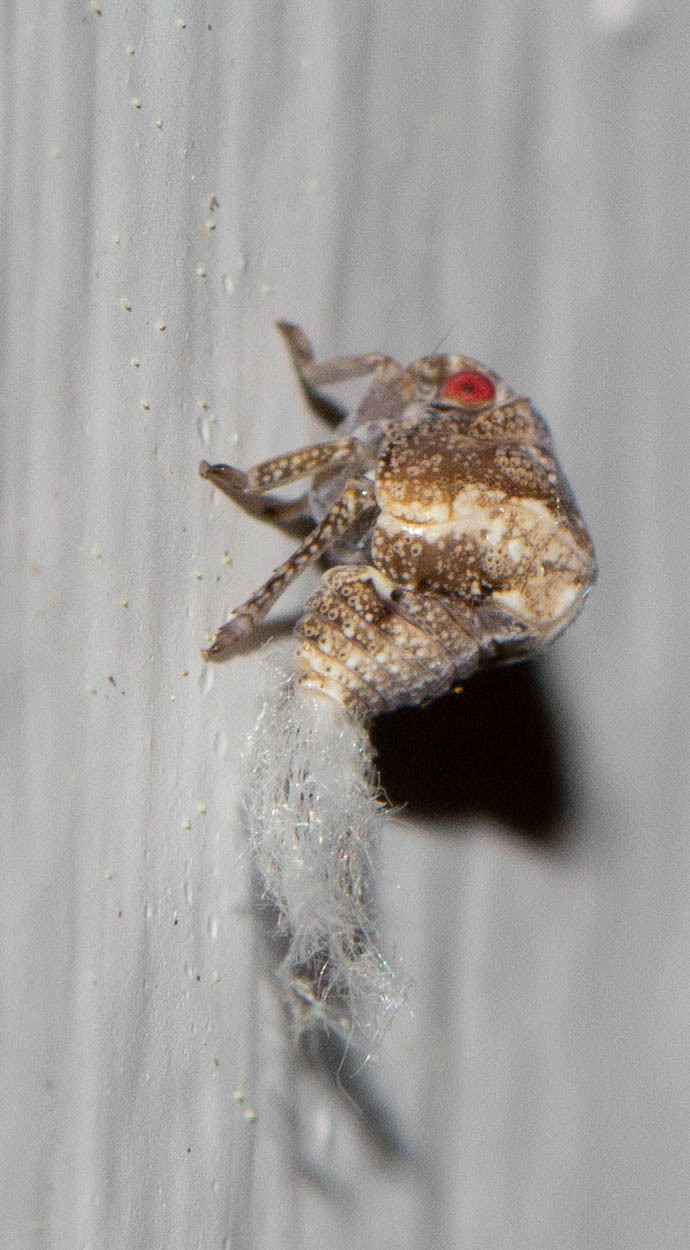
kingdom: Animalia
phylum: Arthropoda
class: Insecta
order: Hemiptera
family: Acanaloniidae
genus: Acanalonia
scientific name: Acanalonia bivittata
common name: Two-striped planthopper
